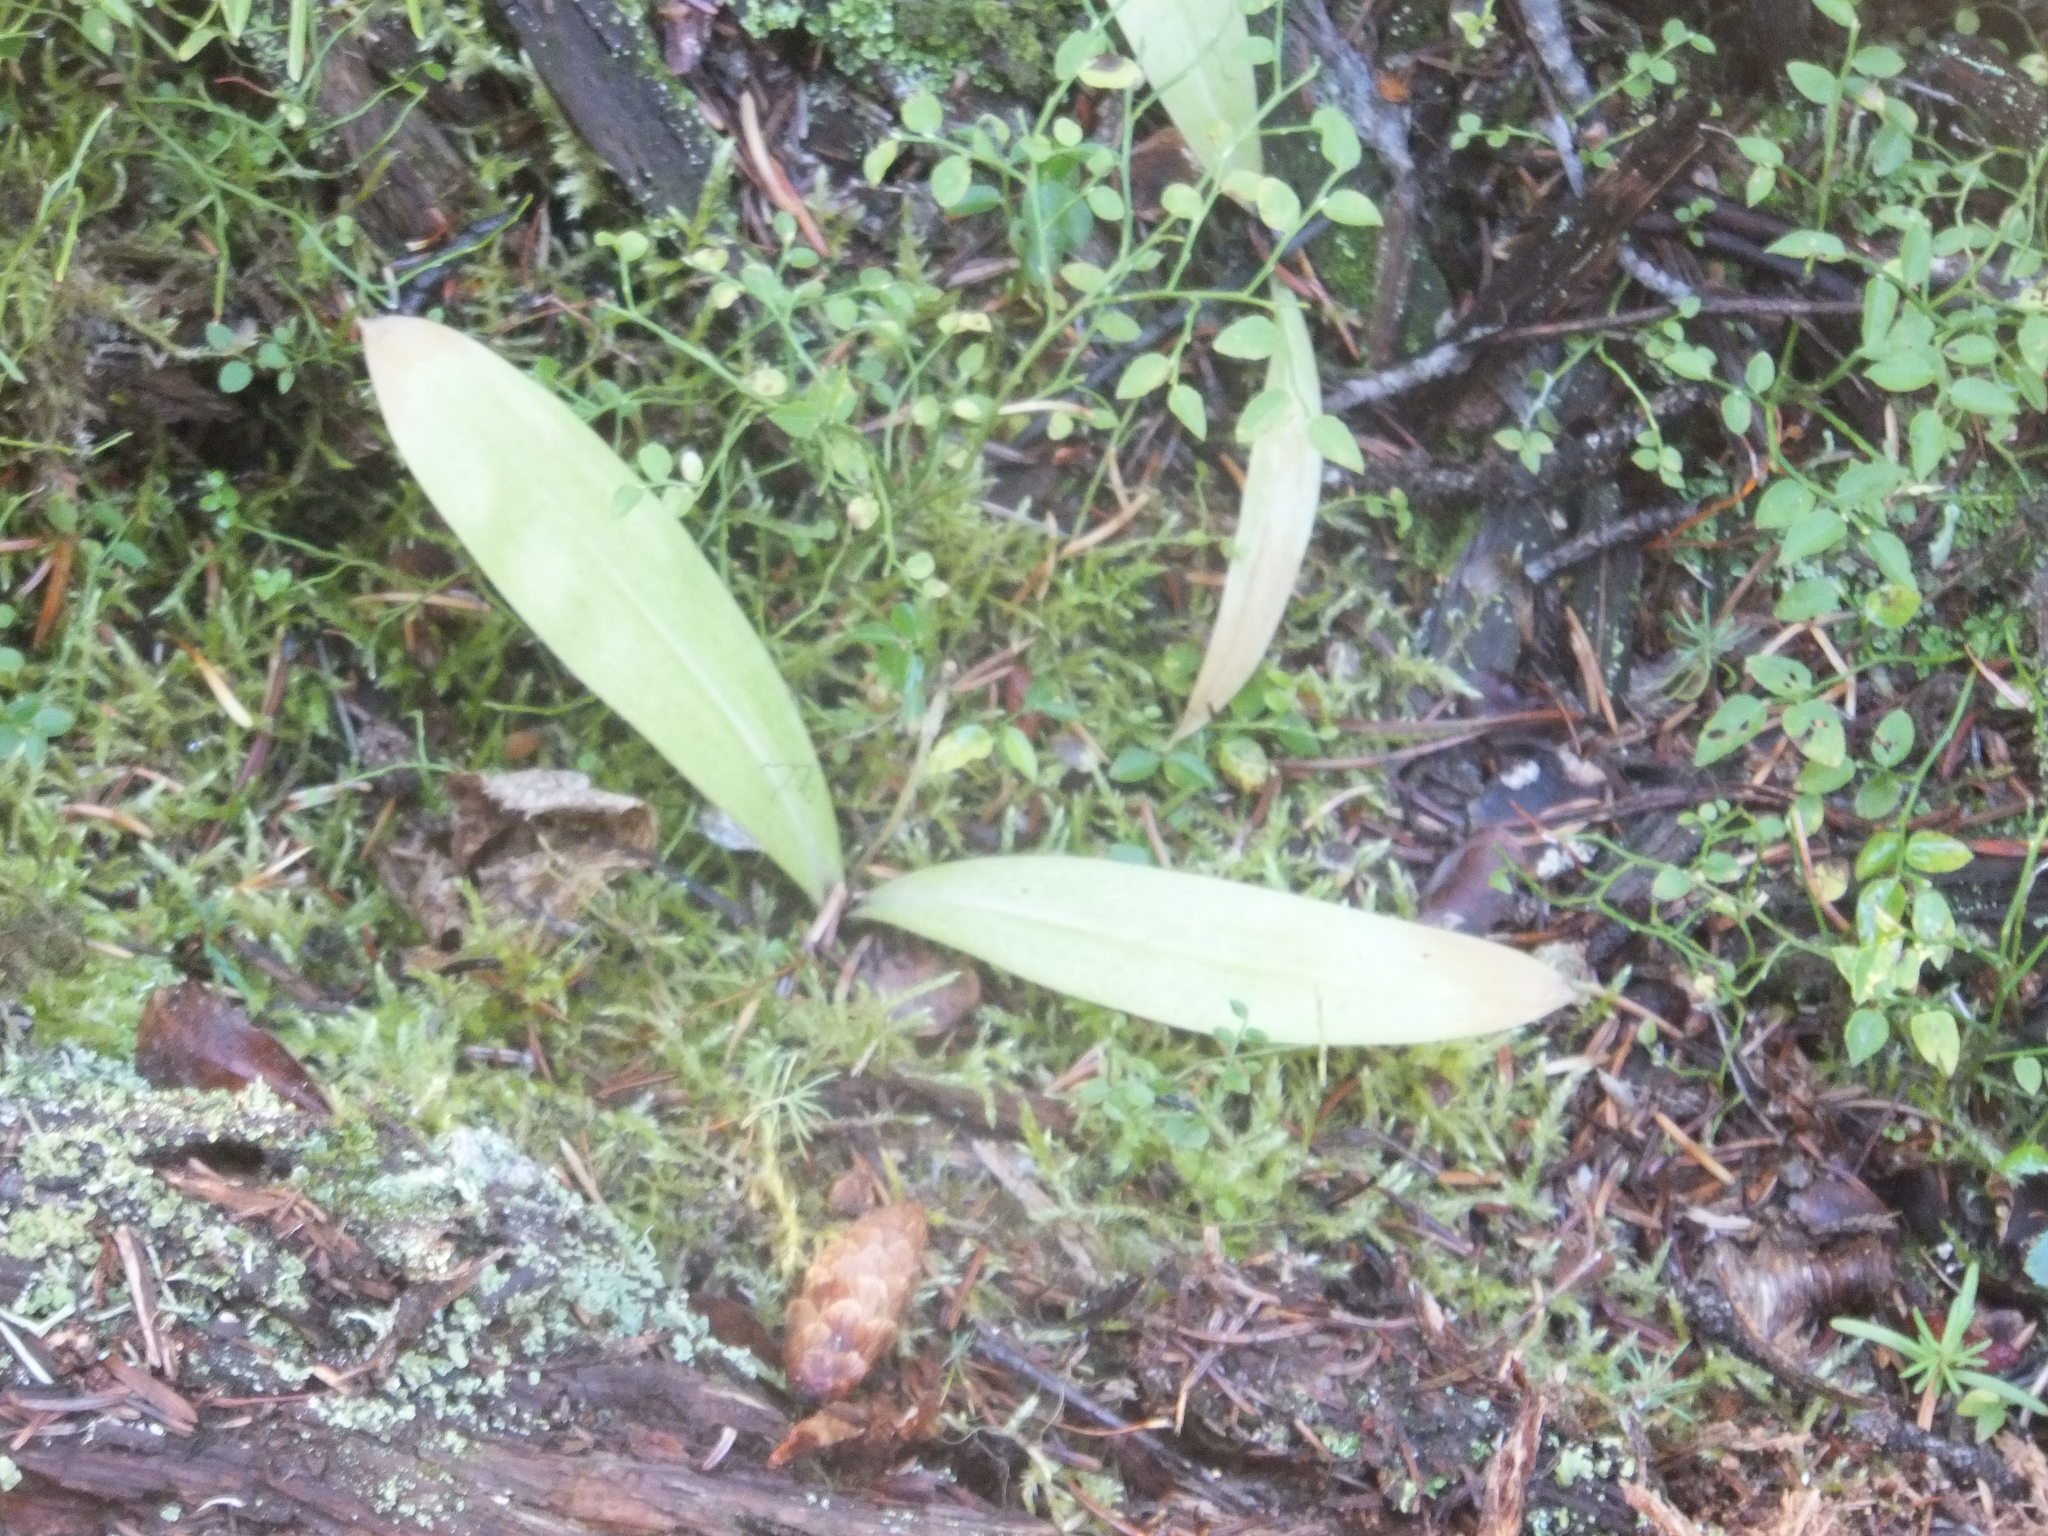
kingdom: Plantae
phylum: Tracheophyta
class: Liliopsida
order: Liliales
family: Liliaceae
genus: Clintonia
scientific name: Clintonia uniflora
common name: Queen's cup
